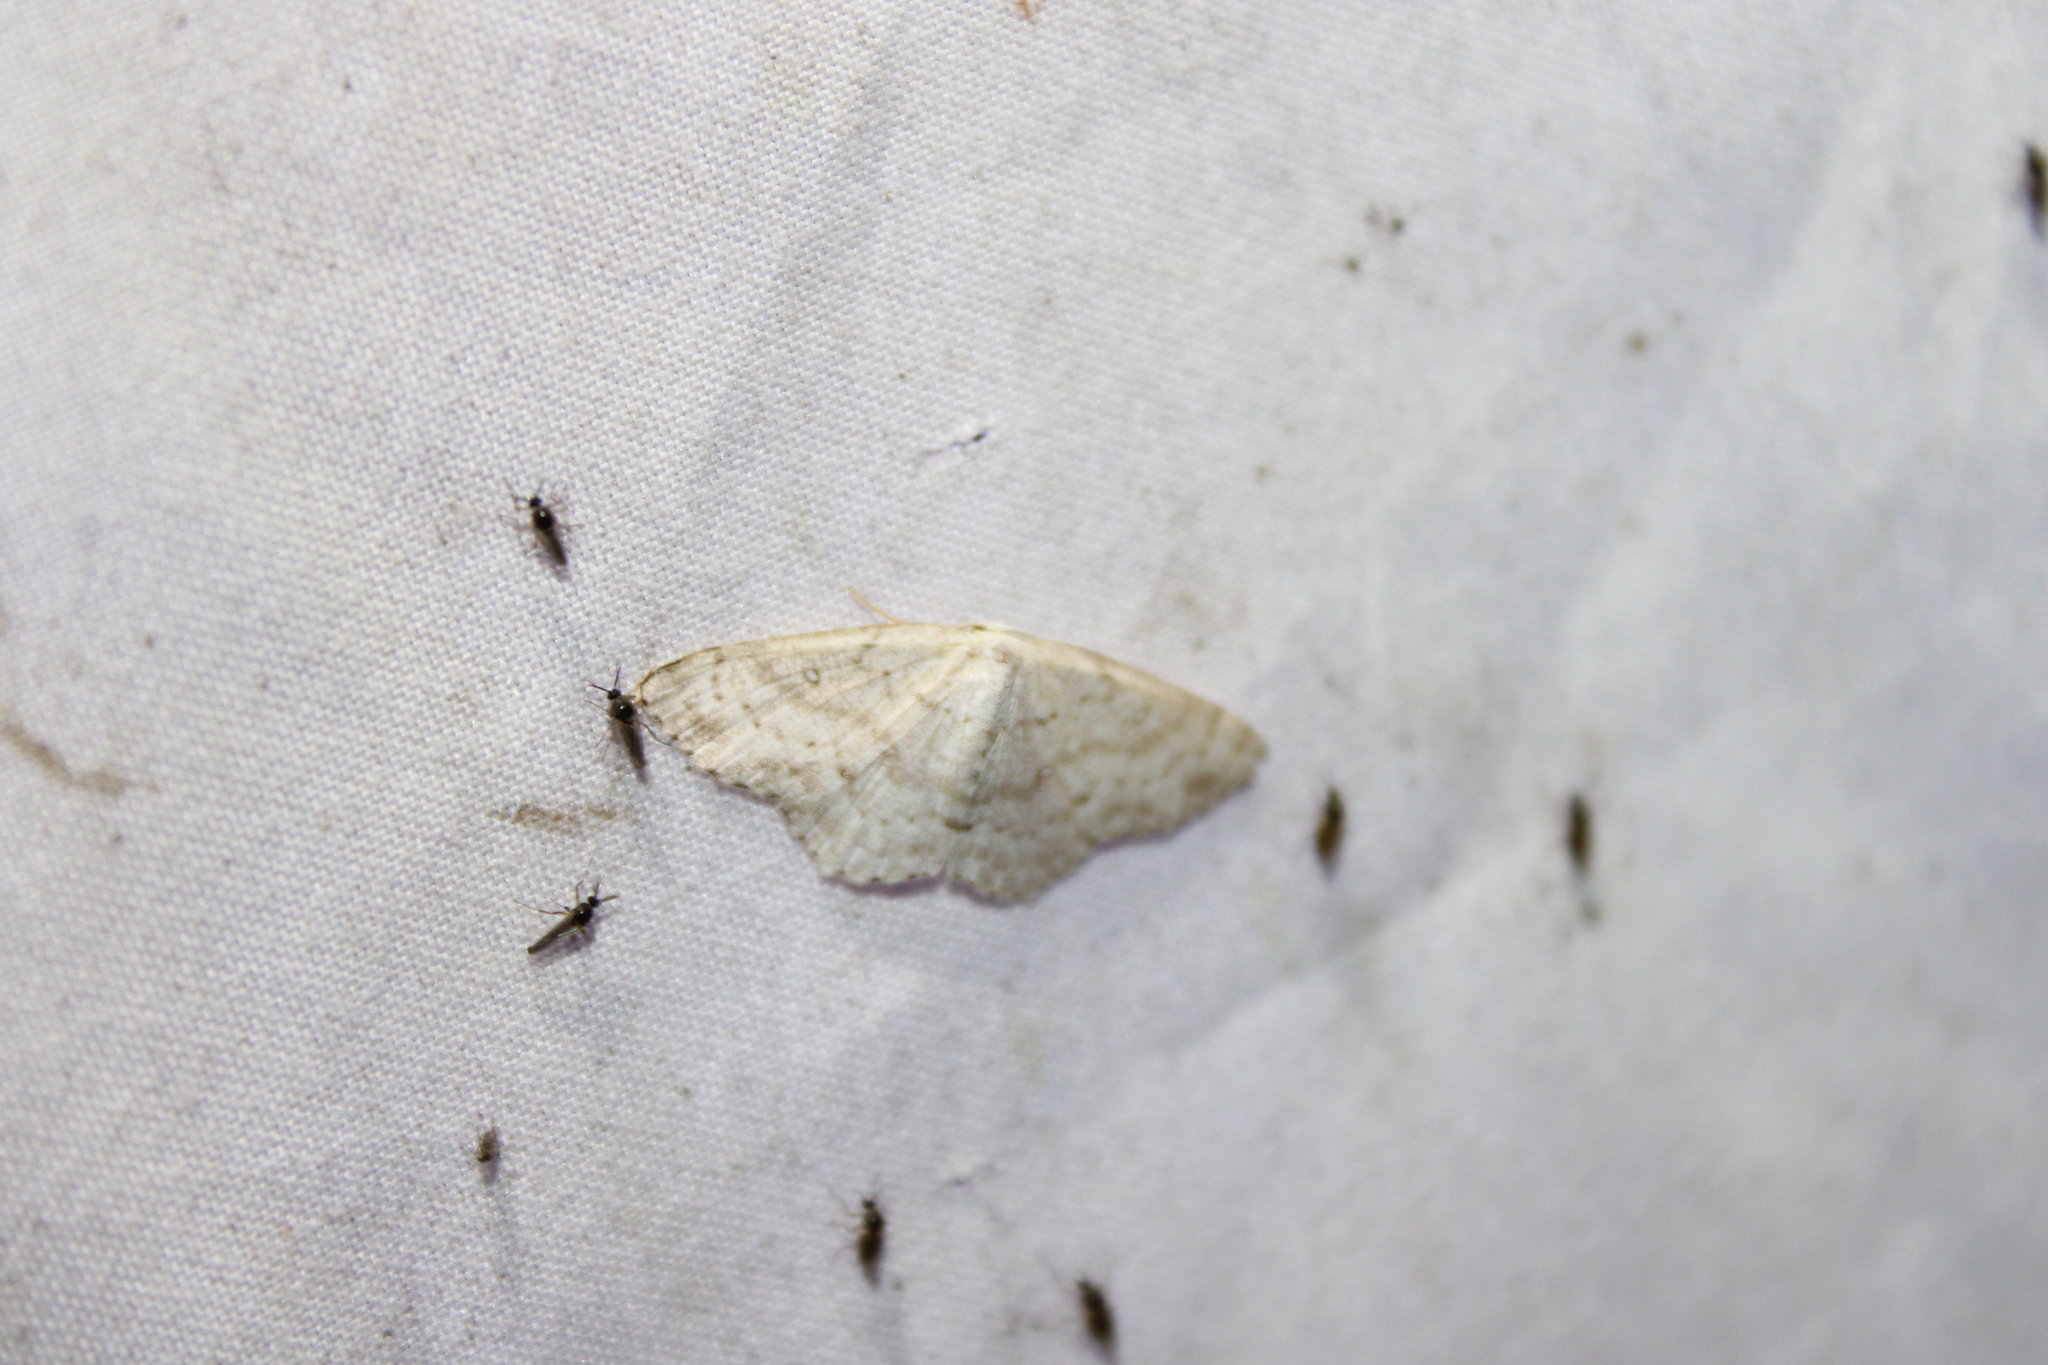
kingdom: Animalia
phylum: Arthropoda
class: Insecta
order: Lepidoptera
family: Geometridae
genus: Cyclophora
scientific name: Cyclophora pendulinaria
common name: Sweet fern geometer
